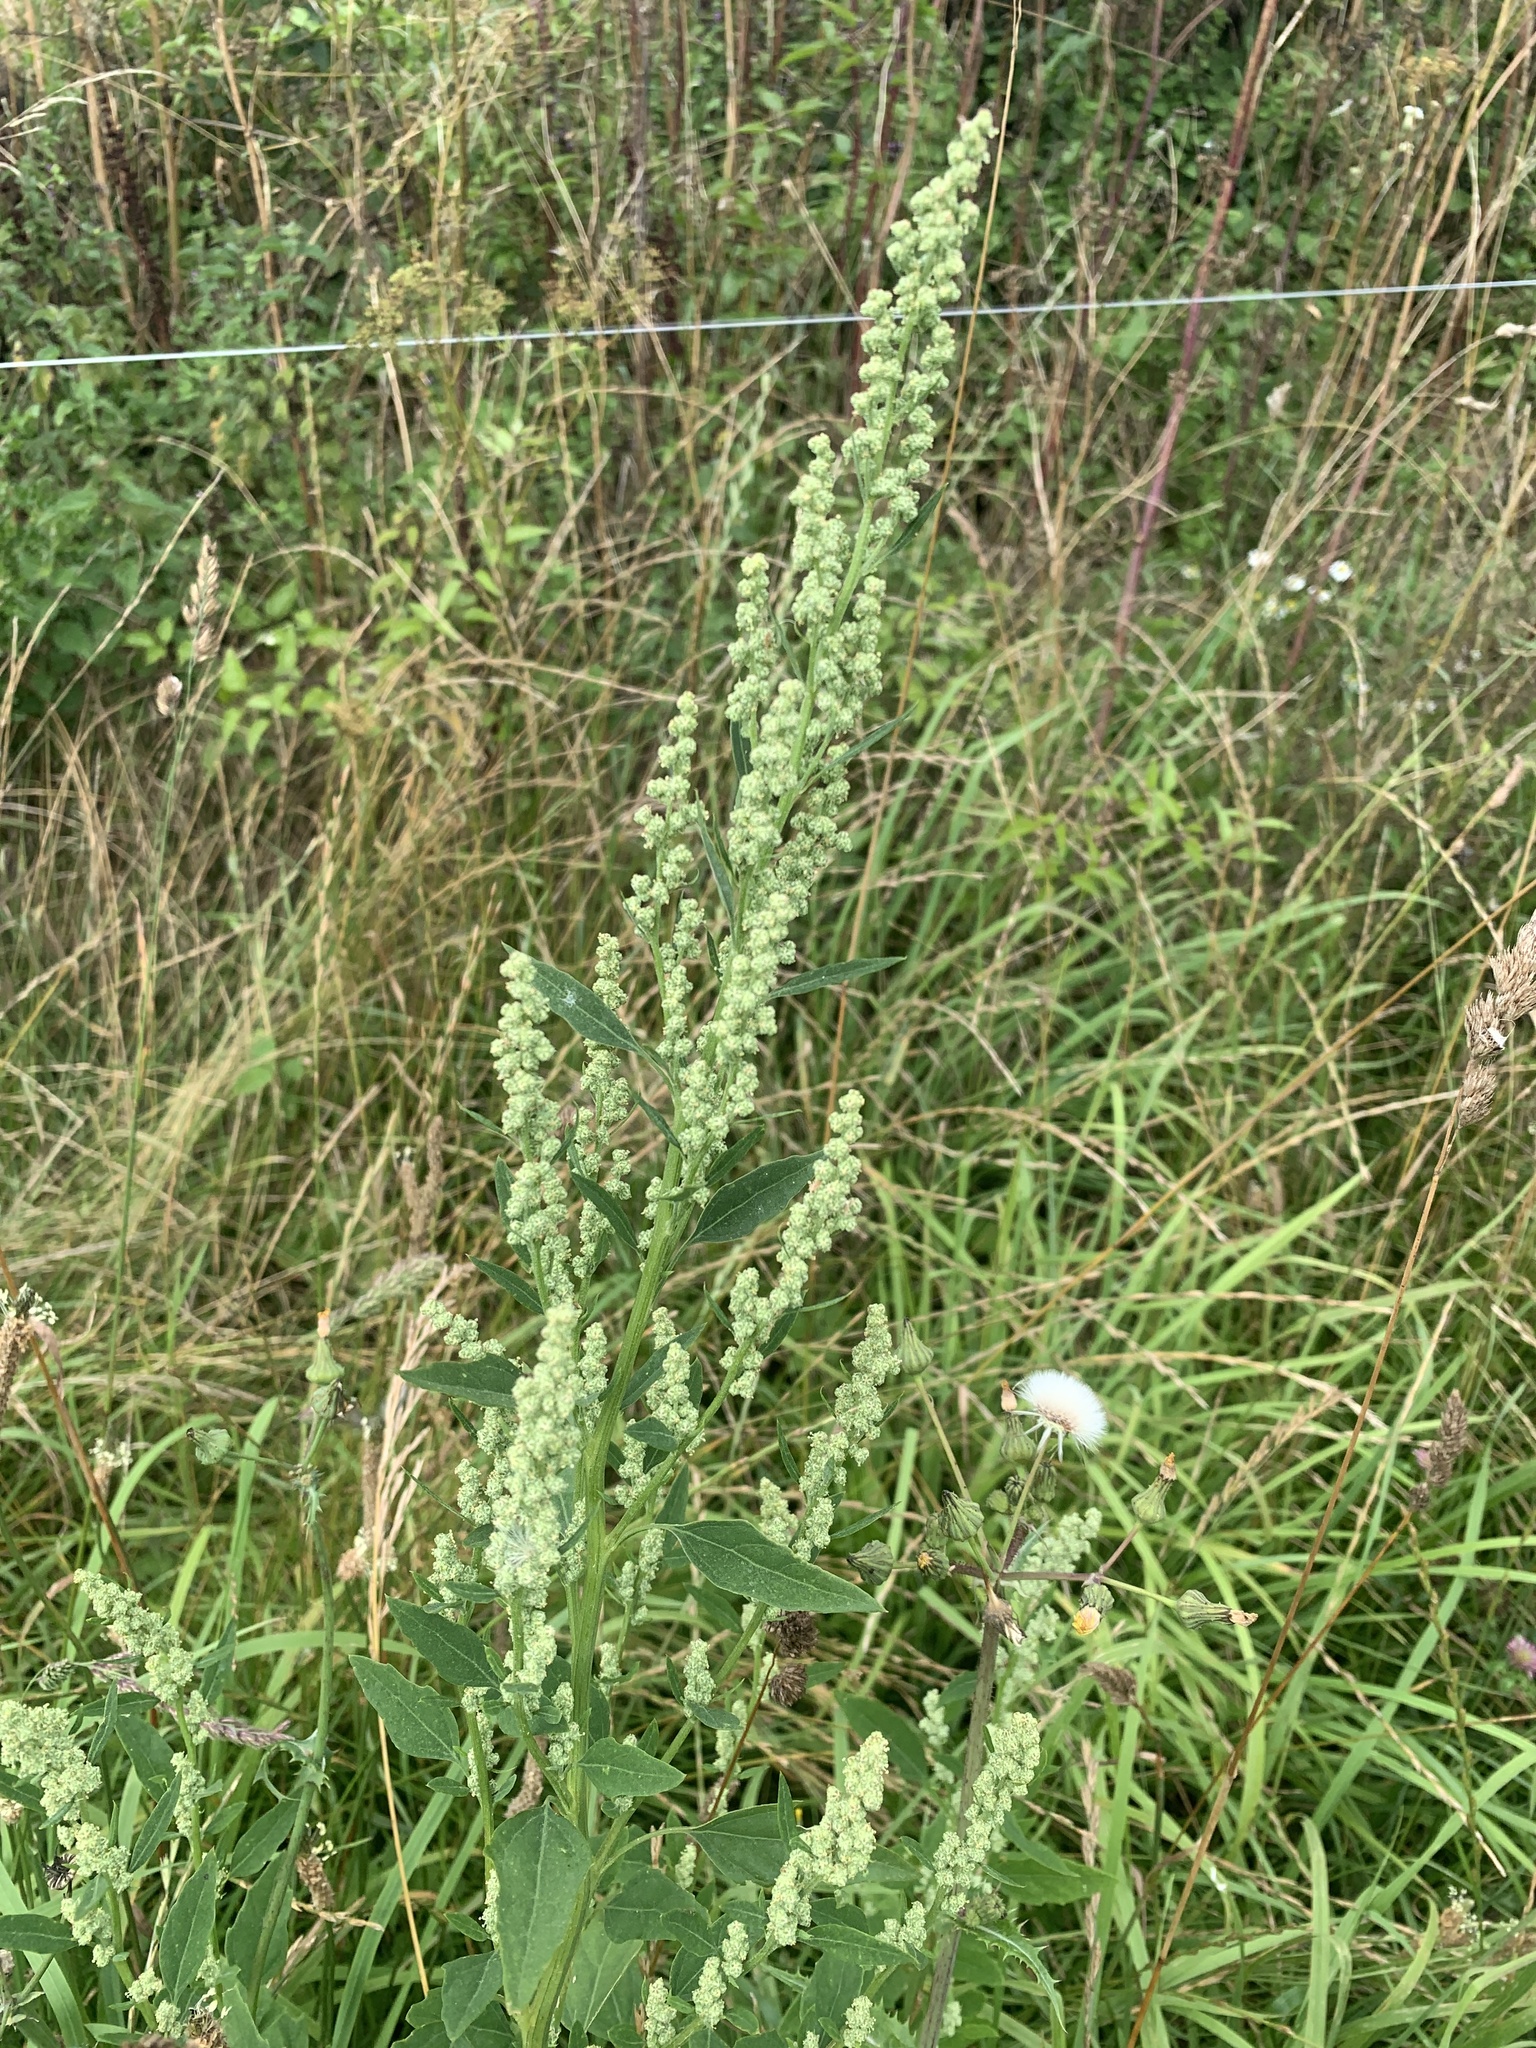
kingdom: Plantae
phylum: Tracheophyta
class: Magnoliopsida
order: Caryophyllales
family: Amaranthaceae
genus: Chenopodium
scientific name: Chenopodium album
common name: Fat-hen
